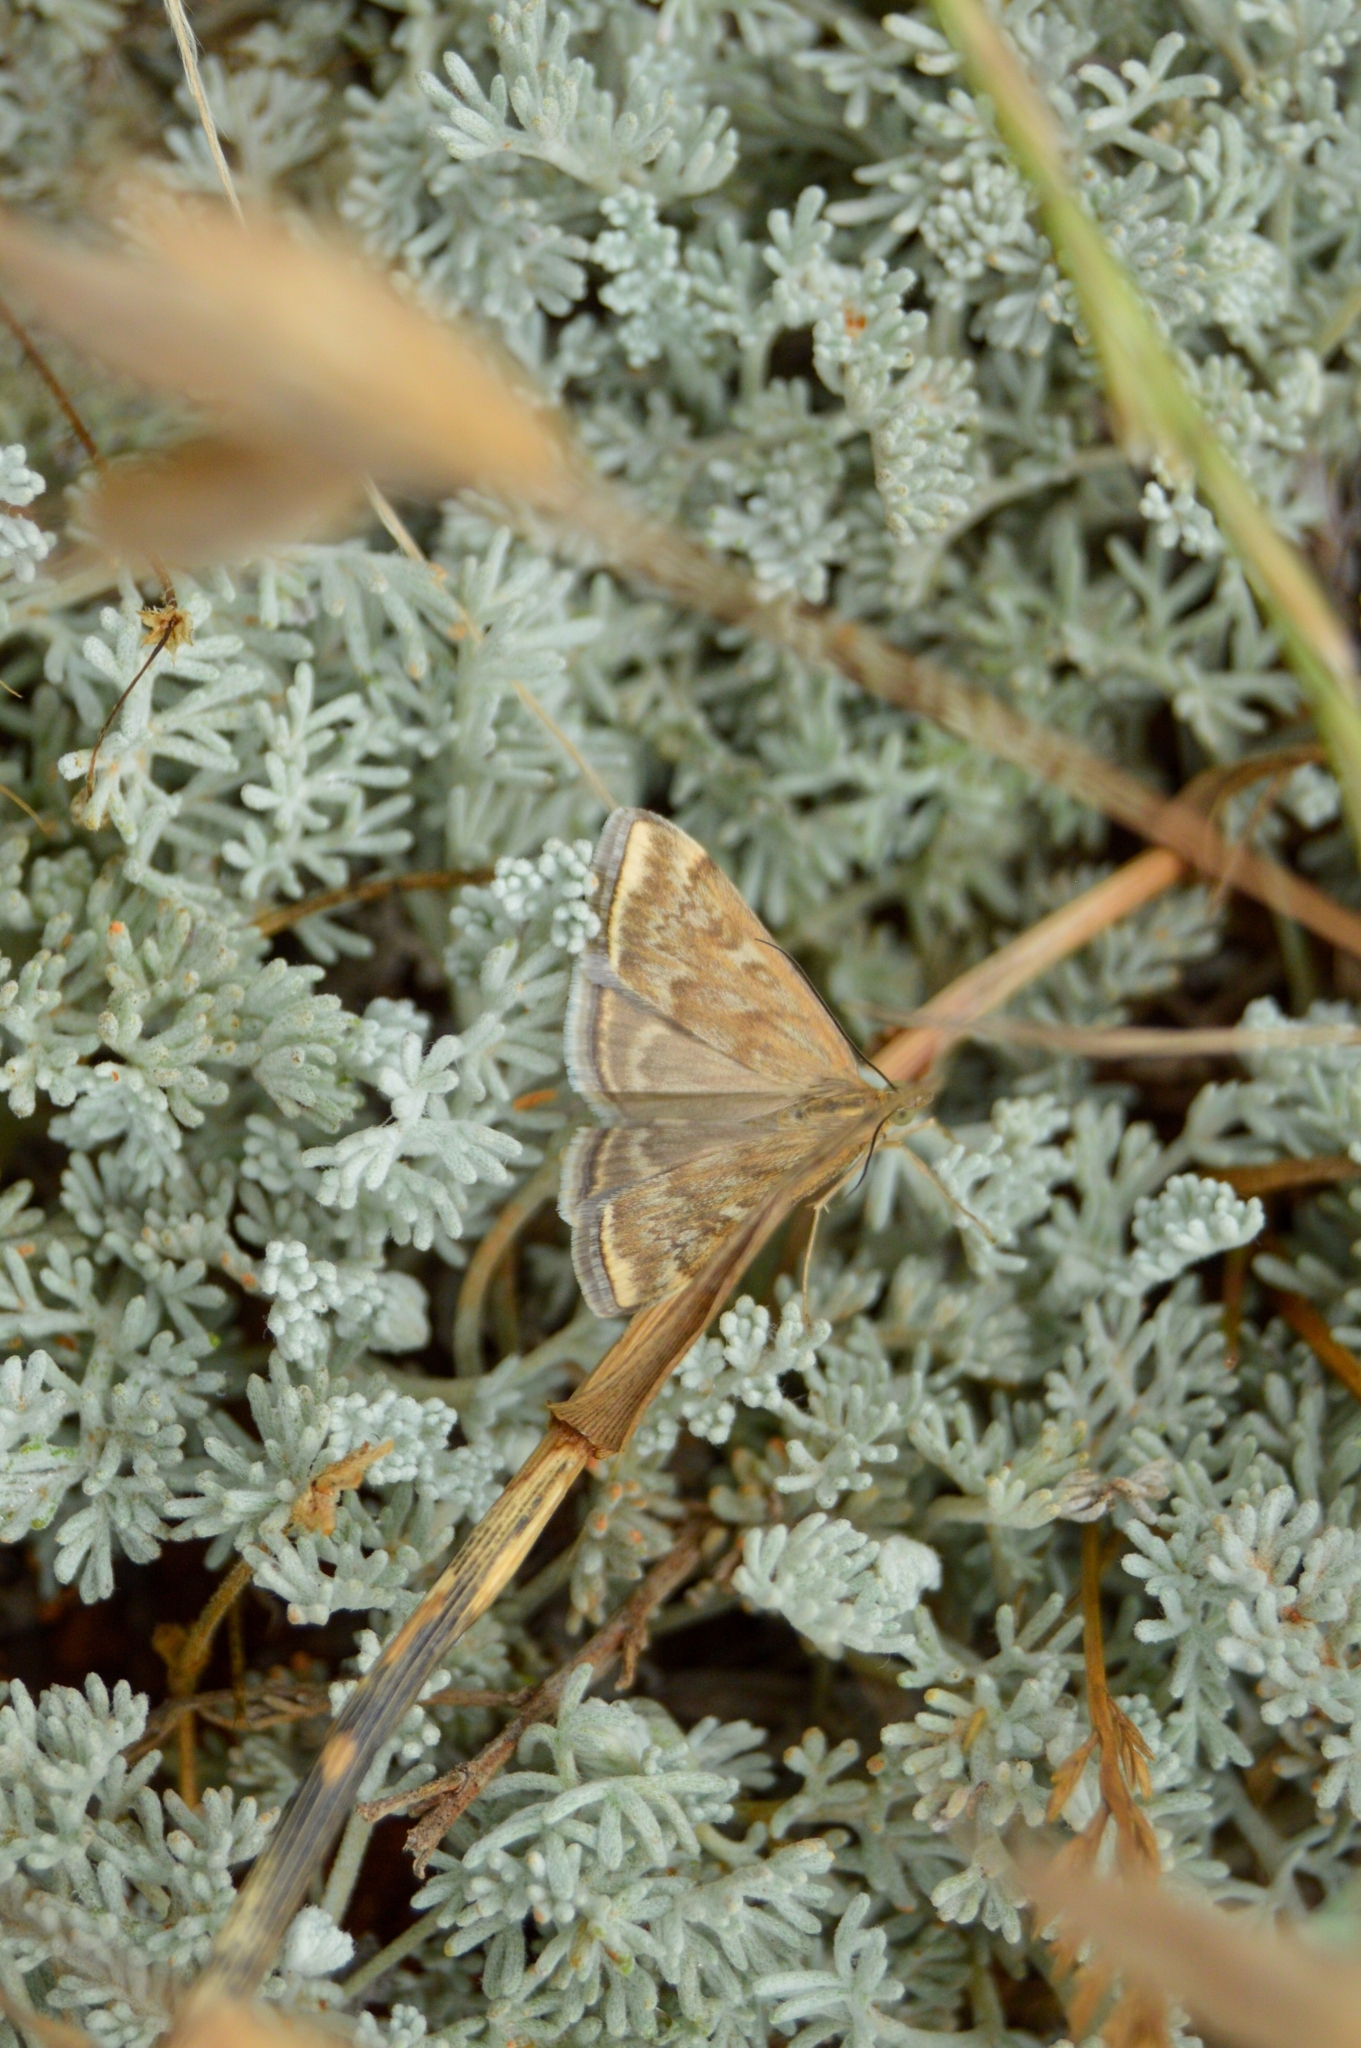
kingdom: Animalia
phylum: Arthropoda
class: Insecta
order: Lepidoptera
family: Crambidae
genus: Loxostege
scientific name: Loxostege sticticalis
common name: Crambid moth
